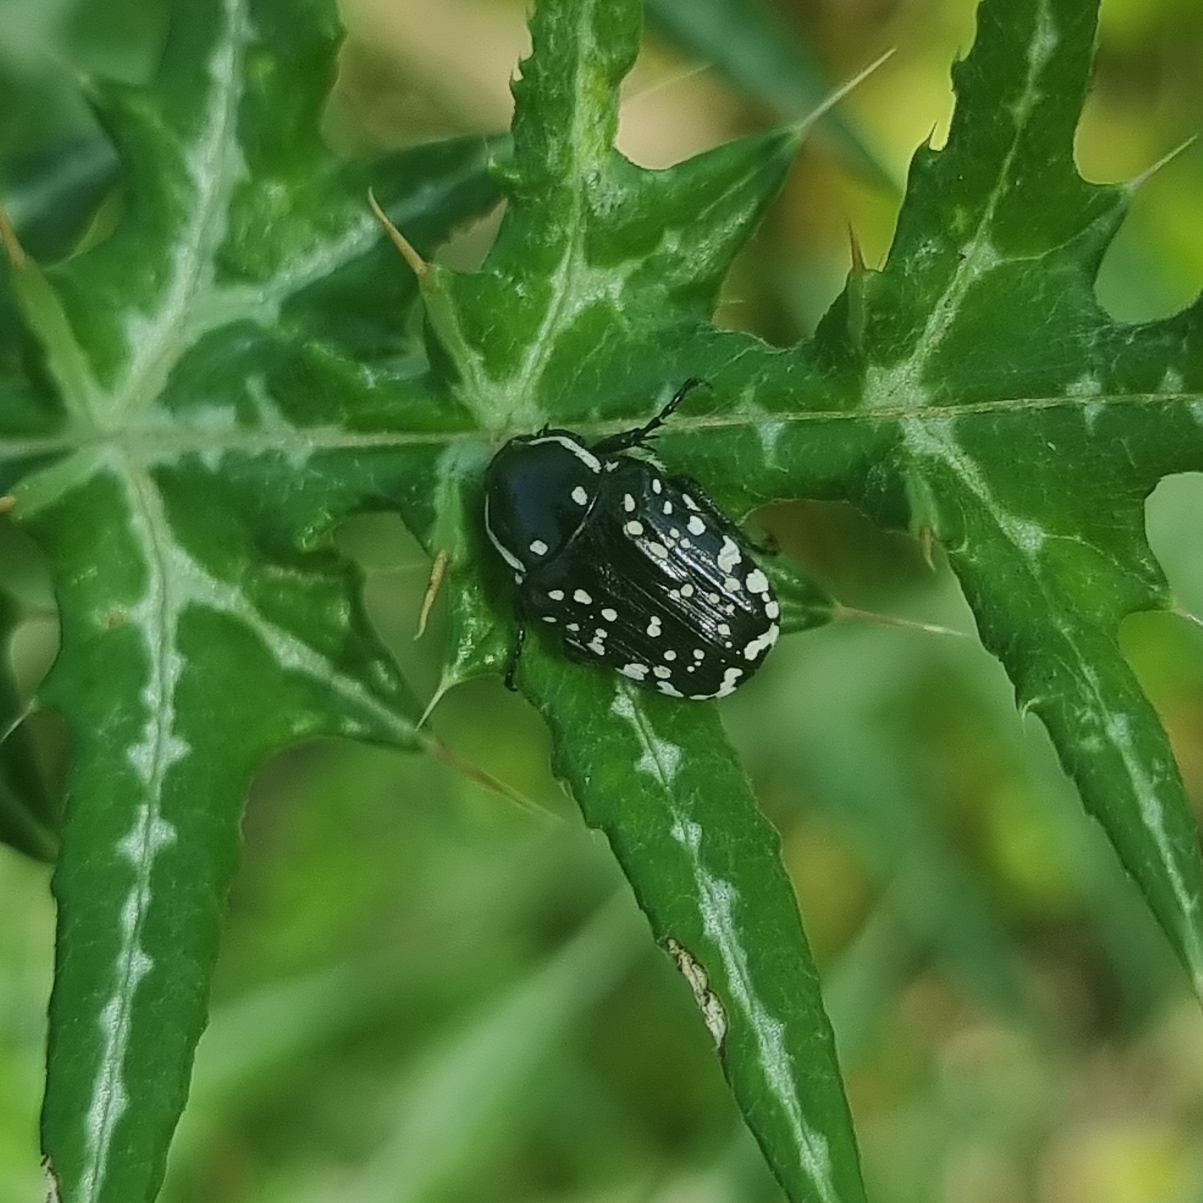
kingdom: Animalia
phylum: Arthropoda
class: Insecta
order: Coleoptera
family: Scarabaeidae
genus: Oxythyrea
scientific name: Oxythyrea cinctella
